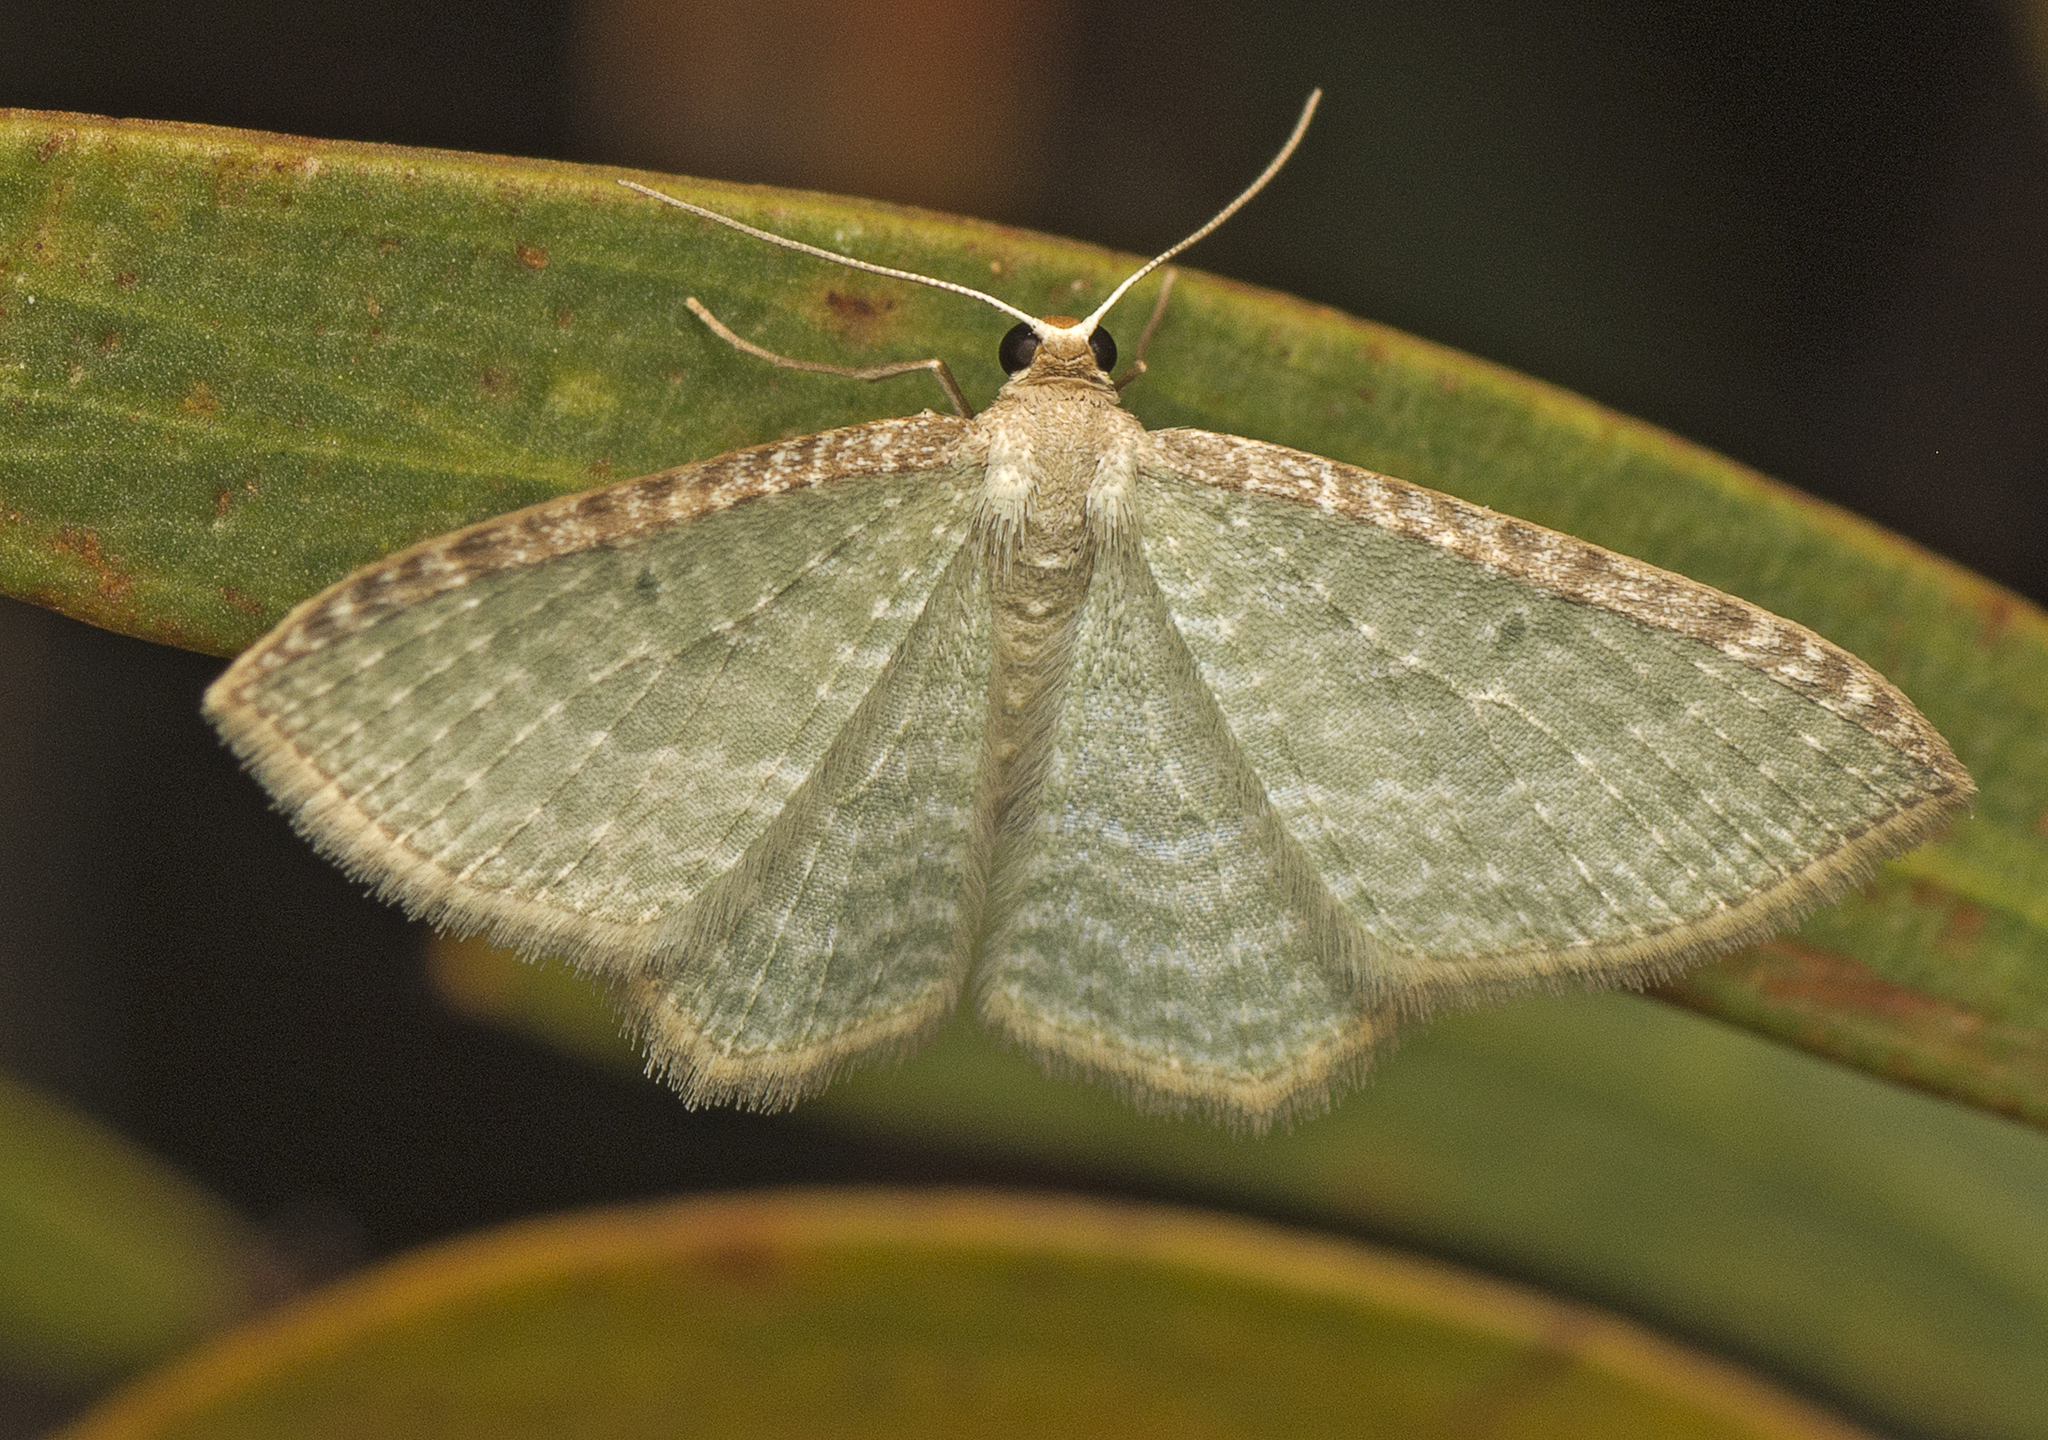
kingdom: Animalia
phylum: Arthropoda
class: Insecta
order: Lepidoptera
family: Geometridae
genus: Poecilasthena
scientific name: Poecilasthena pulchraria
